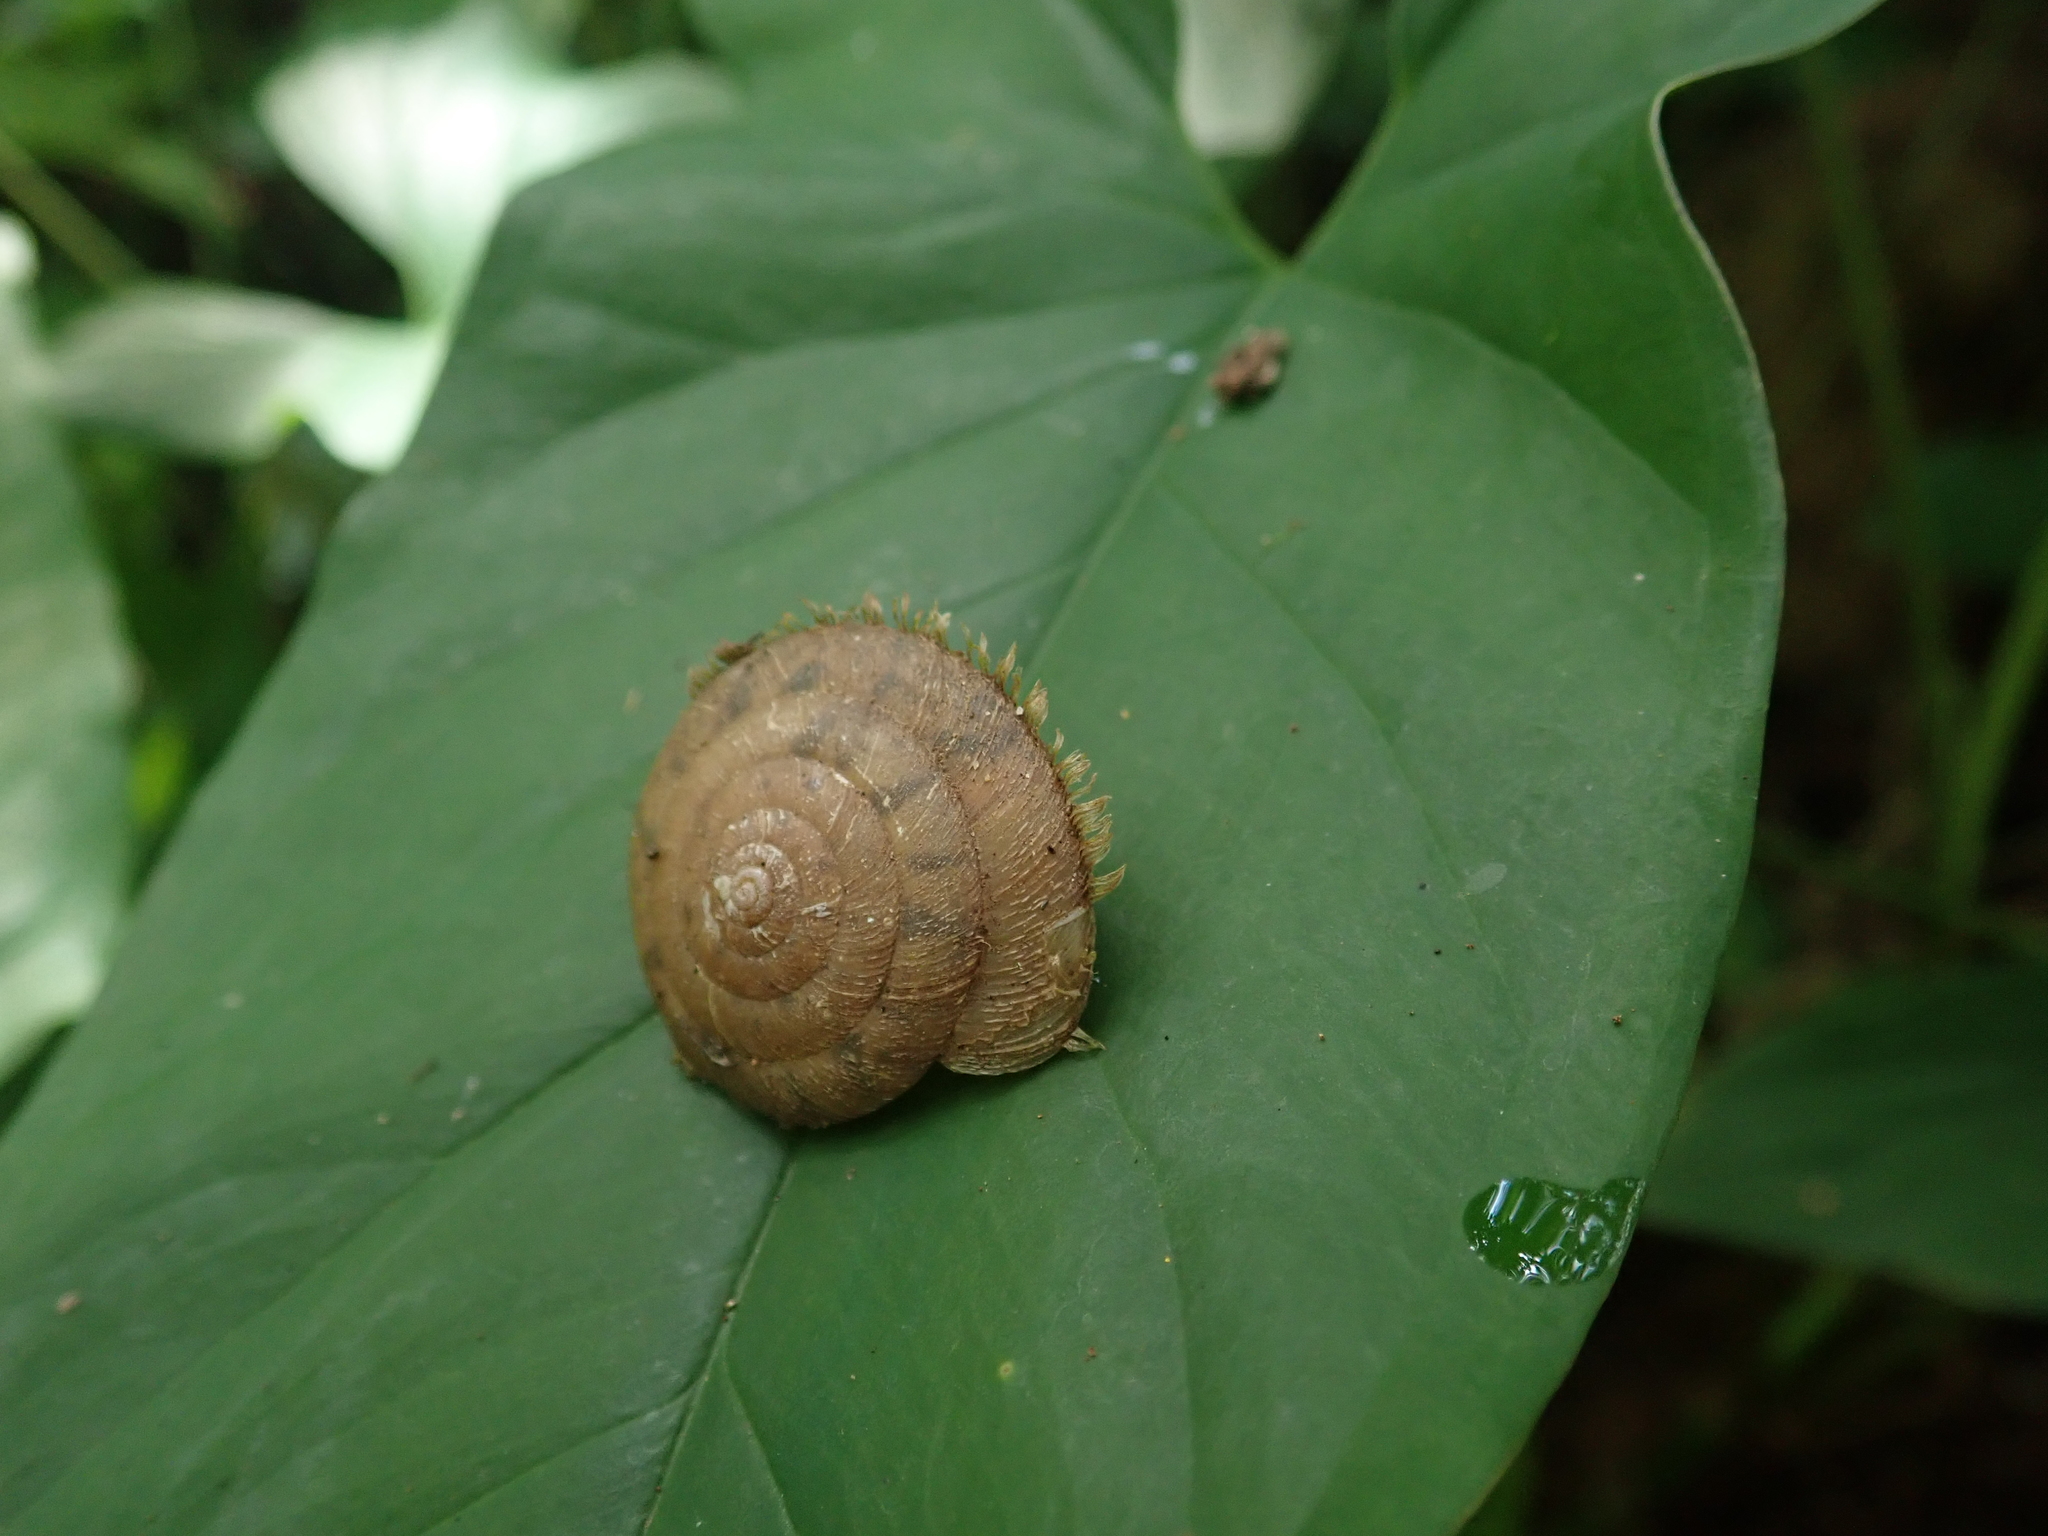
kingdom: Animalia
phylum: Mollusca
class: Gastropoda
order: Stylommatophora
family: Camaenidae
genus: Plectotropis
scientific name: Plectotropis mackensii
